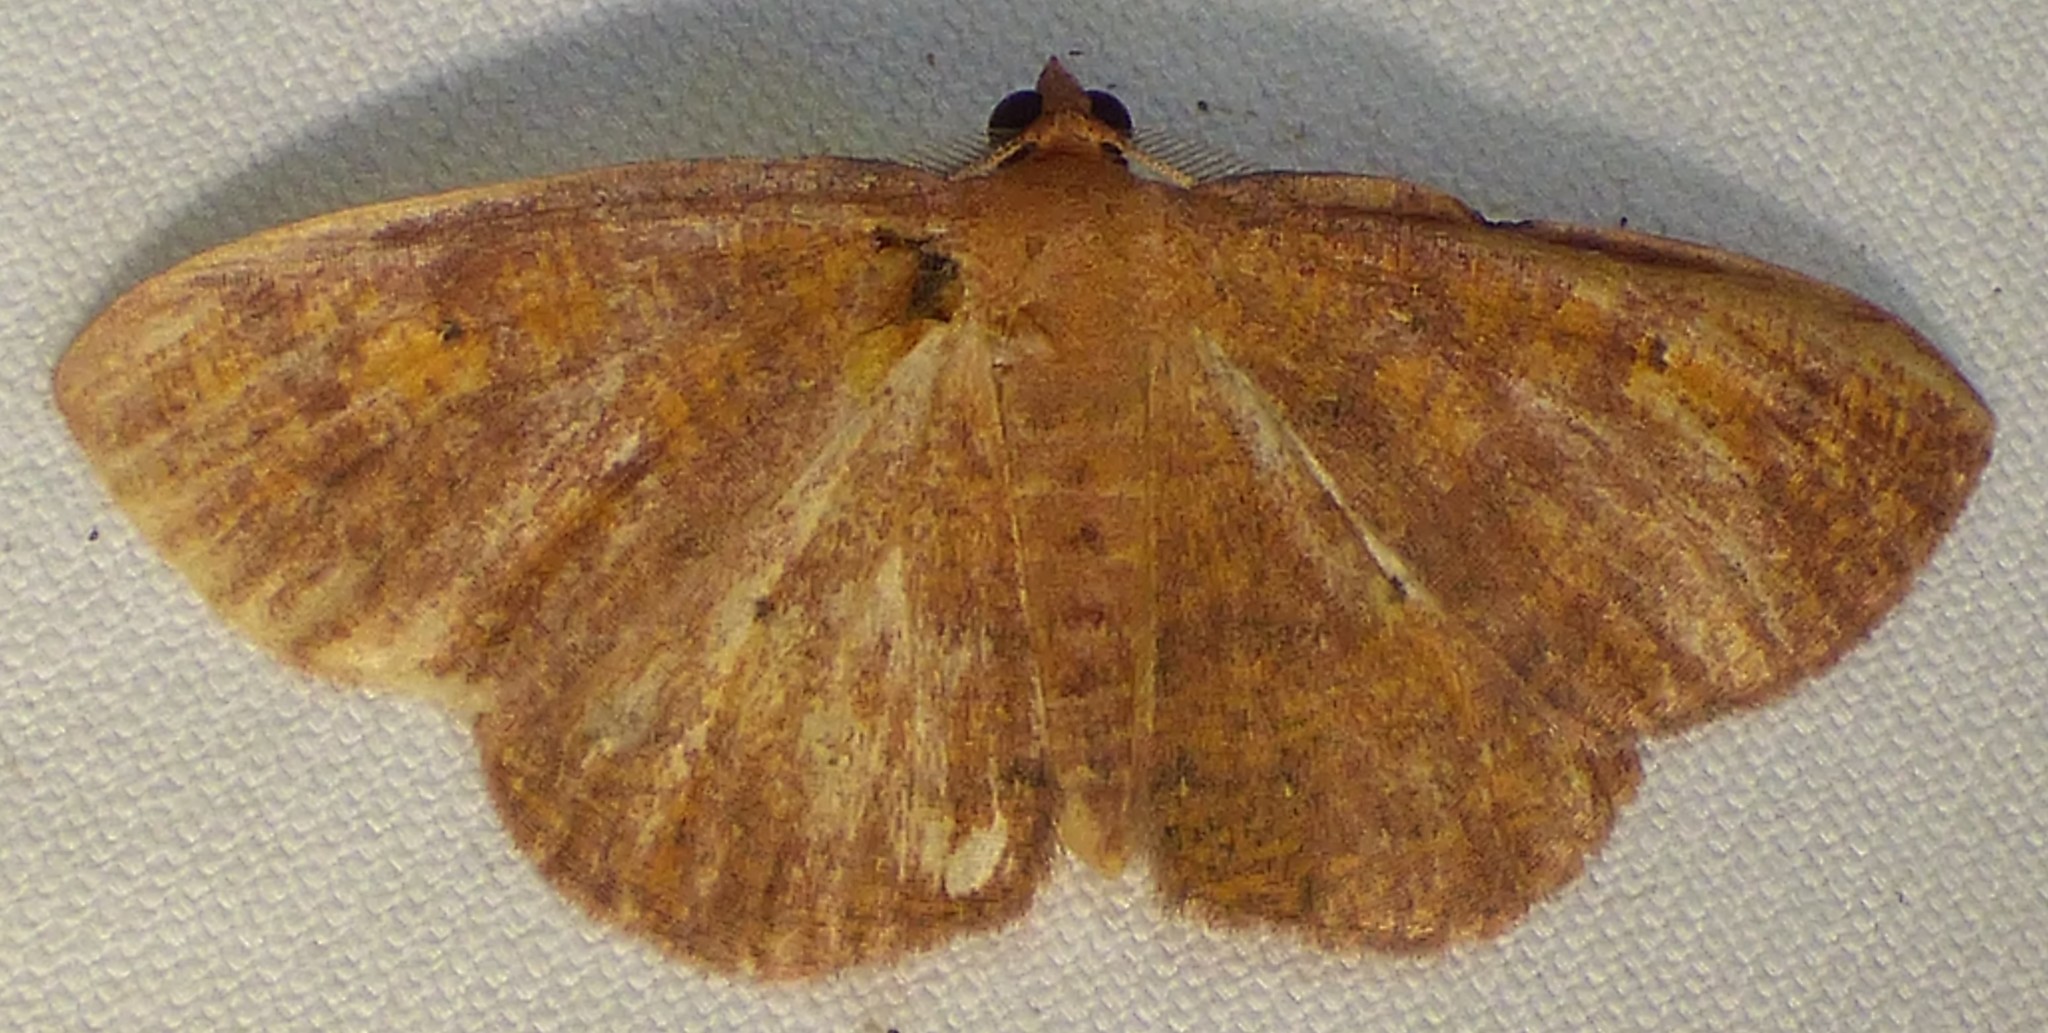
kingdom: Animalia
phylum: Arthropoda
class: Insecta
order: Lepidoptera
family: Geometridae
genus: Ilexia
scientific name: Ilexia intractata
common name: Black-dotted ruddy moth
